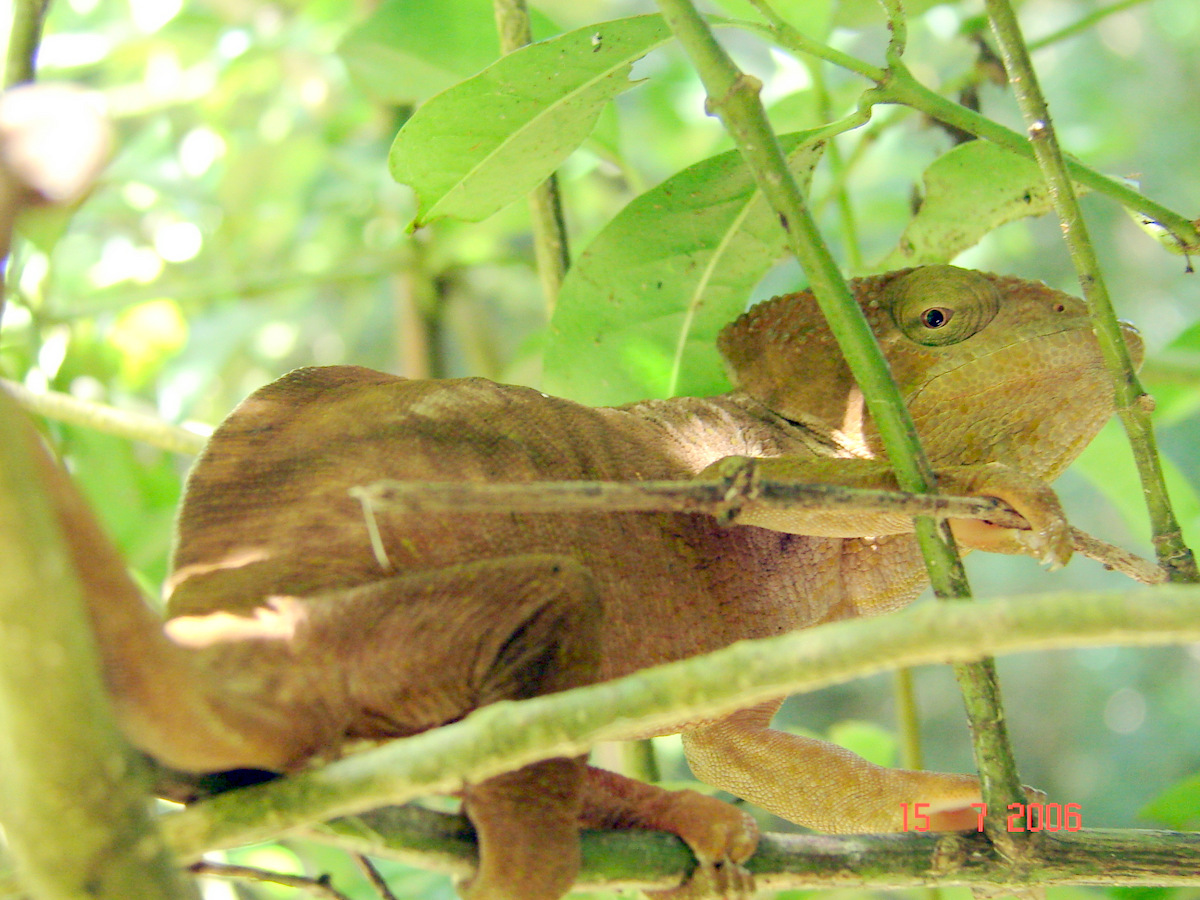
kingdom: Animalia
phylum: Chordata
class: Squamata
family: Chamaeleonidae
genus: Calumma
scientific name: Calumma ambreense
